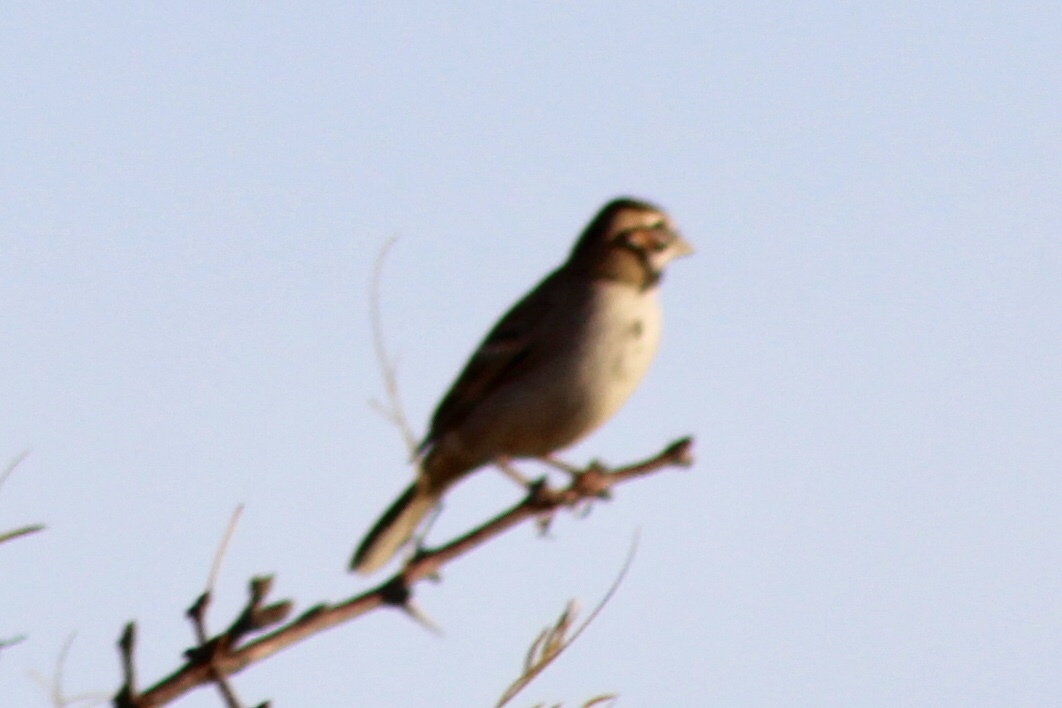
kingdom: Animalia
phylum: Chordata
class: Aves
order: Passeriformes
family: Passerellidae
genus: Chondestes
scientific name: Chondestes grammacus
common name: Lark sparrow
